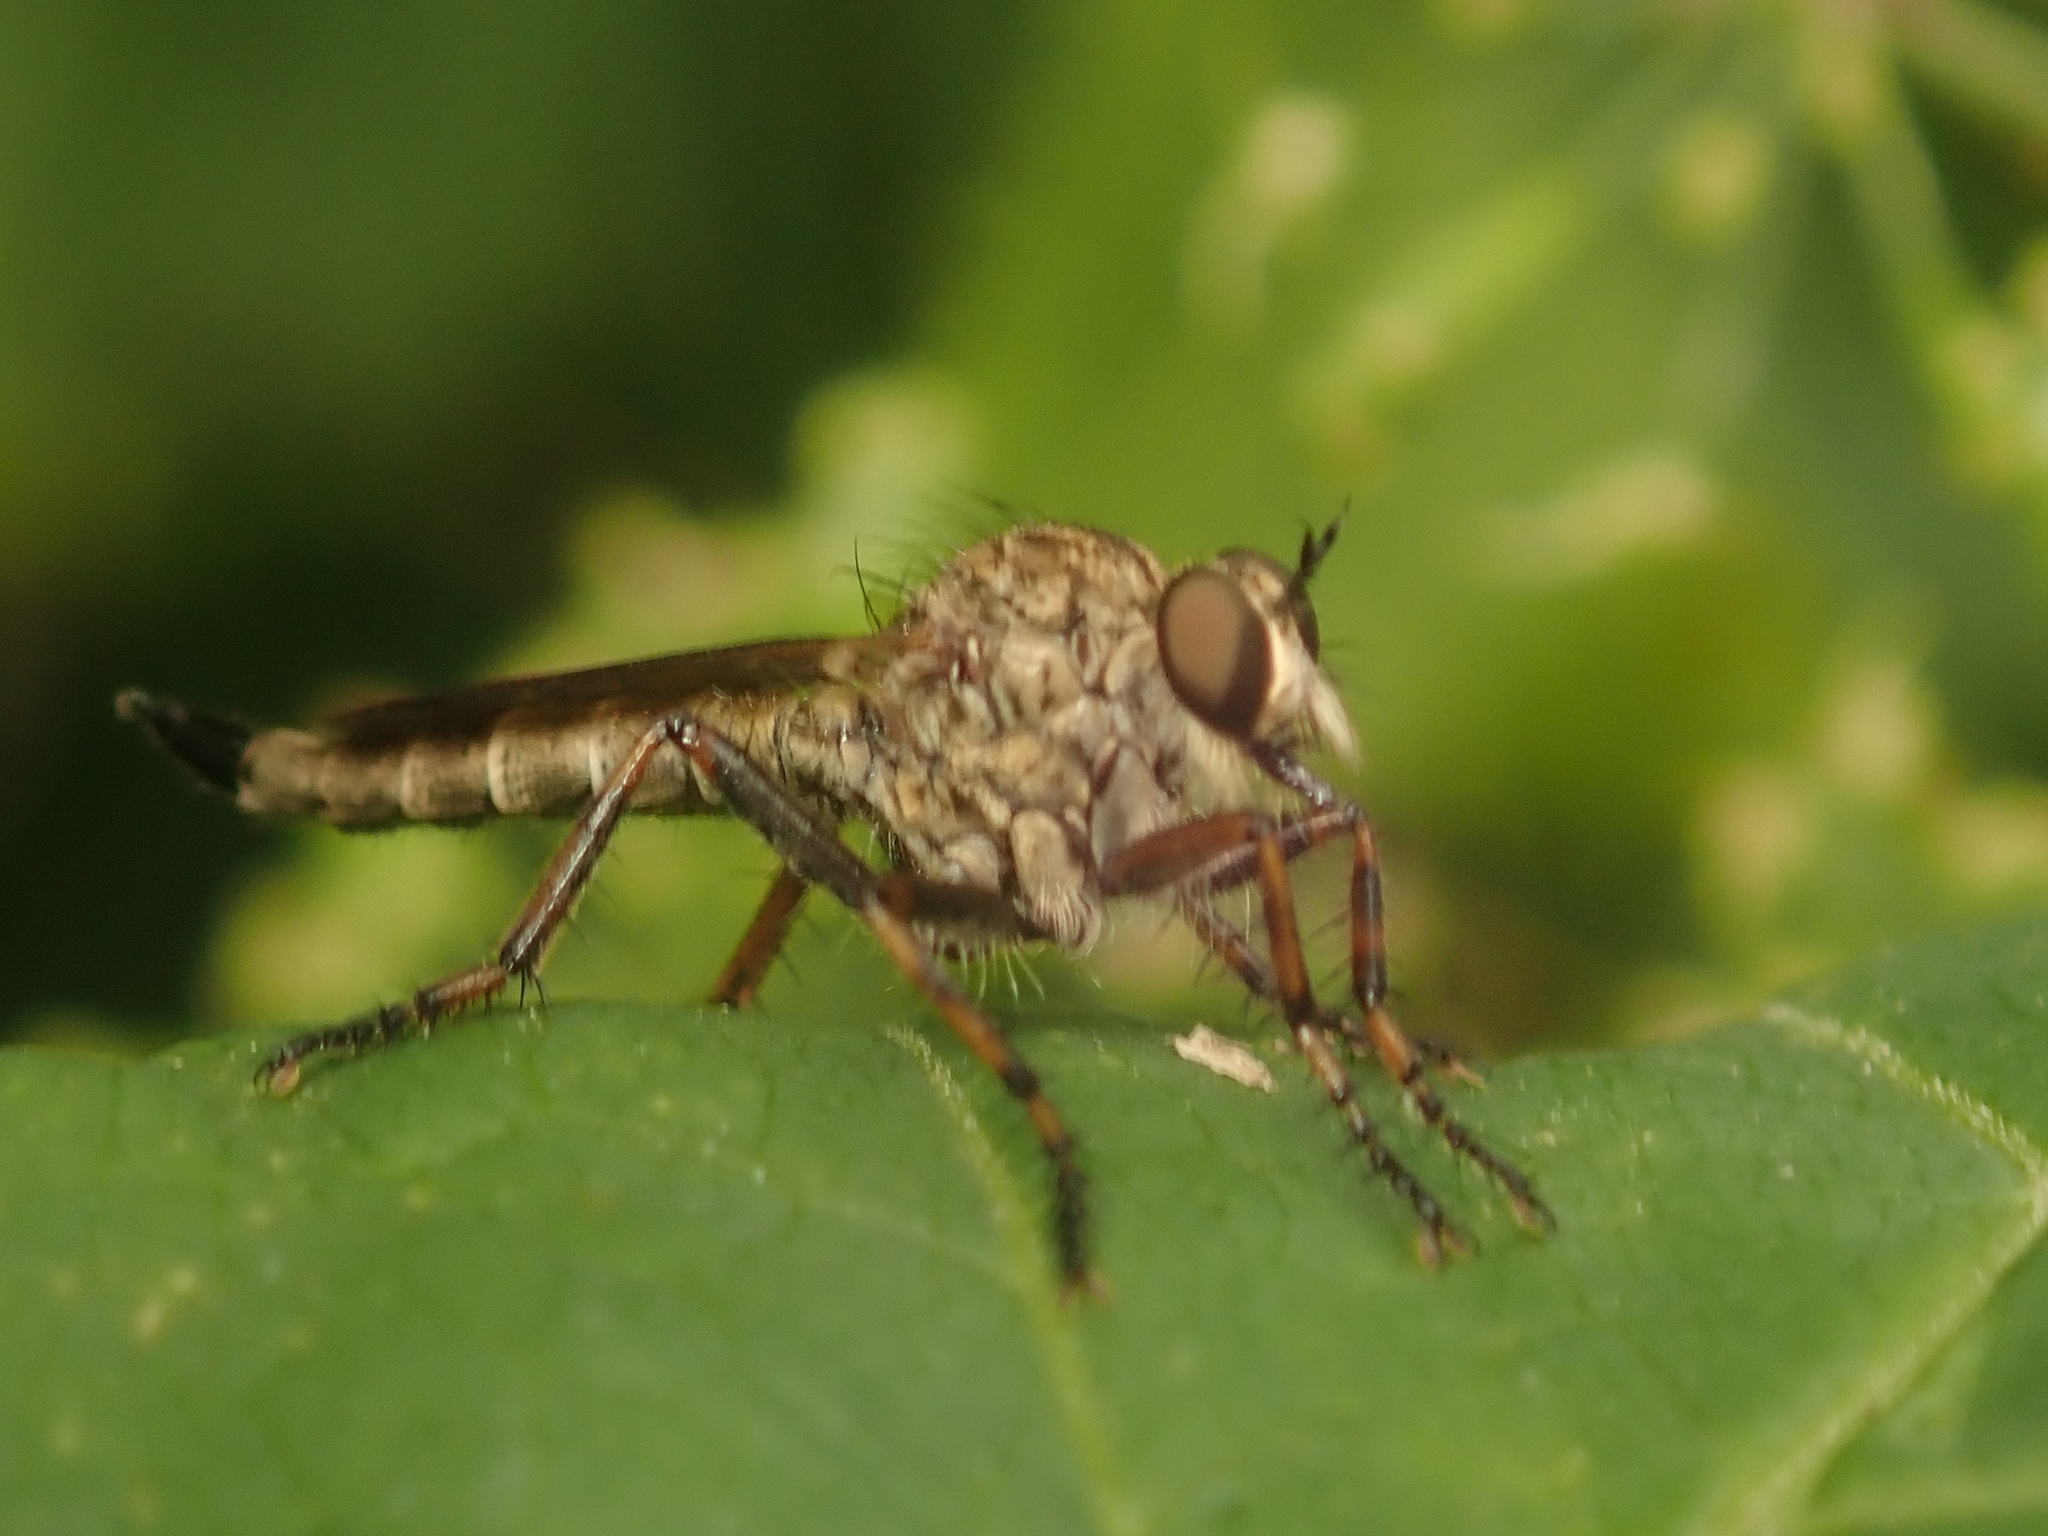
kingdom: Animalia
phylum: Arthropoda
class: Insecta
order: Diptera
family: Asilidae
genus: Epitriptus
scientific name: Epitriptus cingulatus
